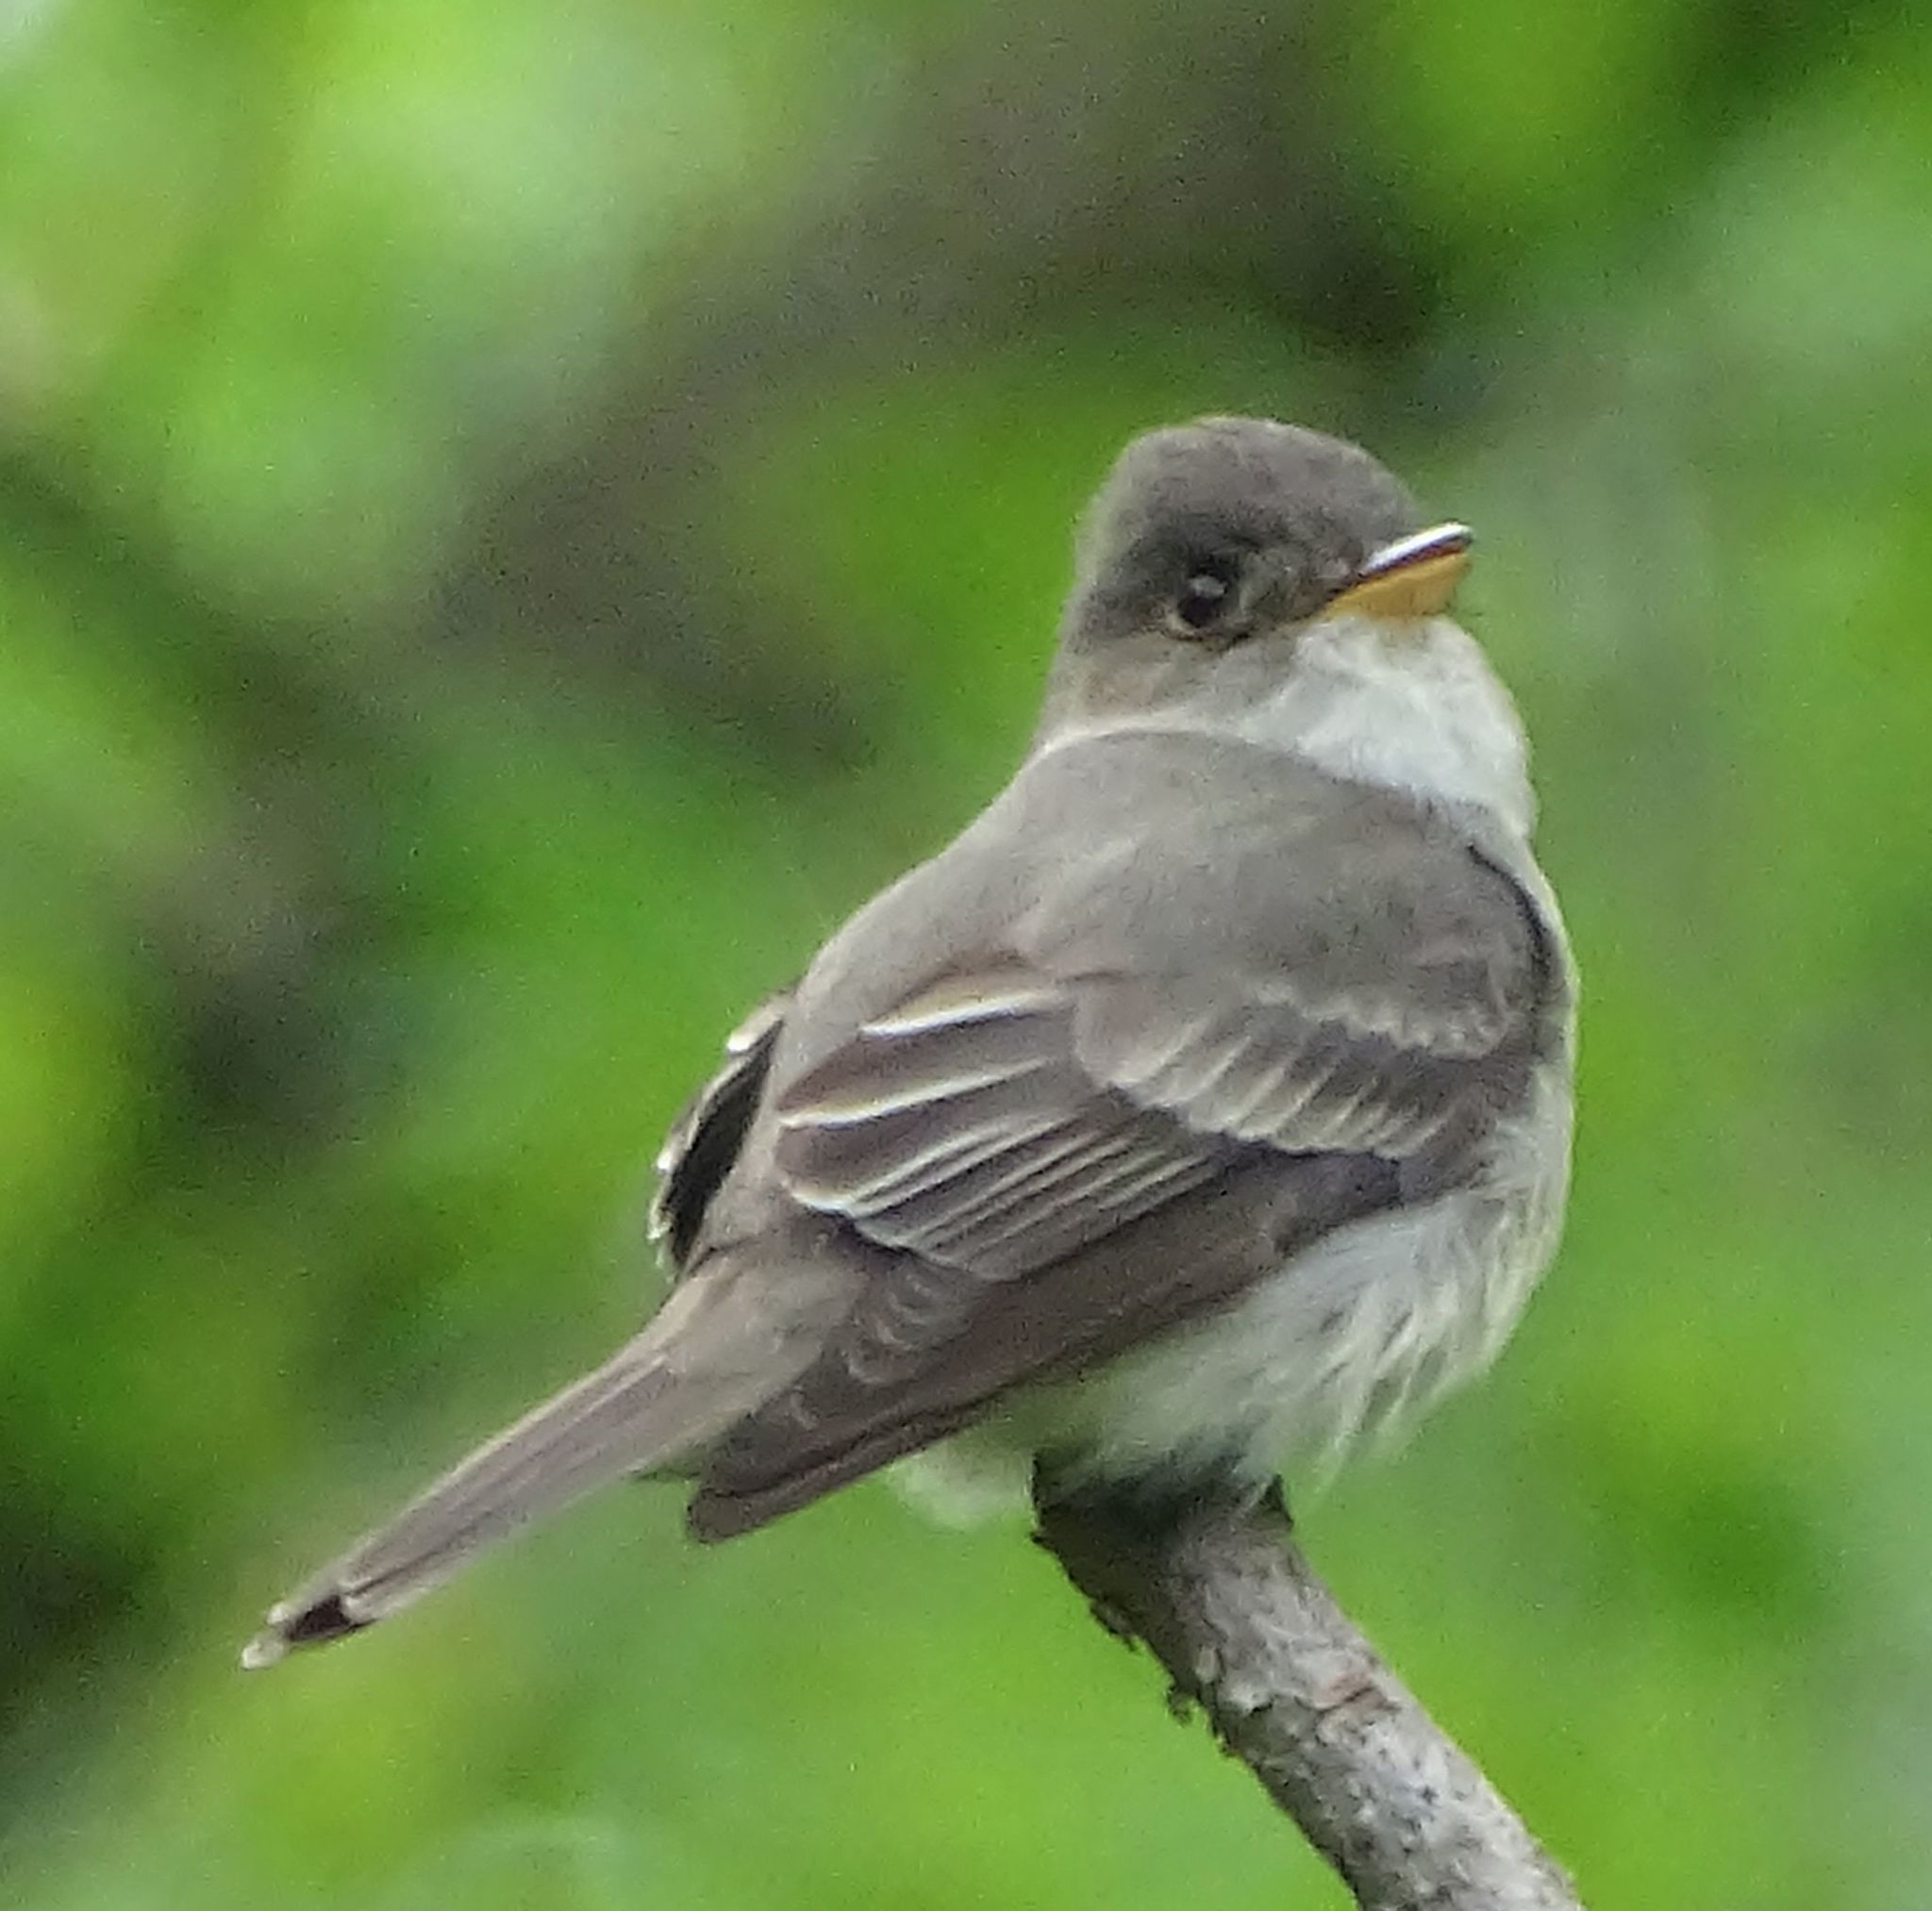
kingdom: Animalia
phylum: Chordata
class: Aves
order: Passeriformes
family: Tyrannidae
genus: Contopus
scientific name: Contopus virens
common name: Eastern wood-pewee
